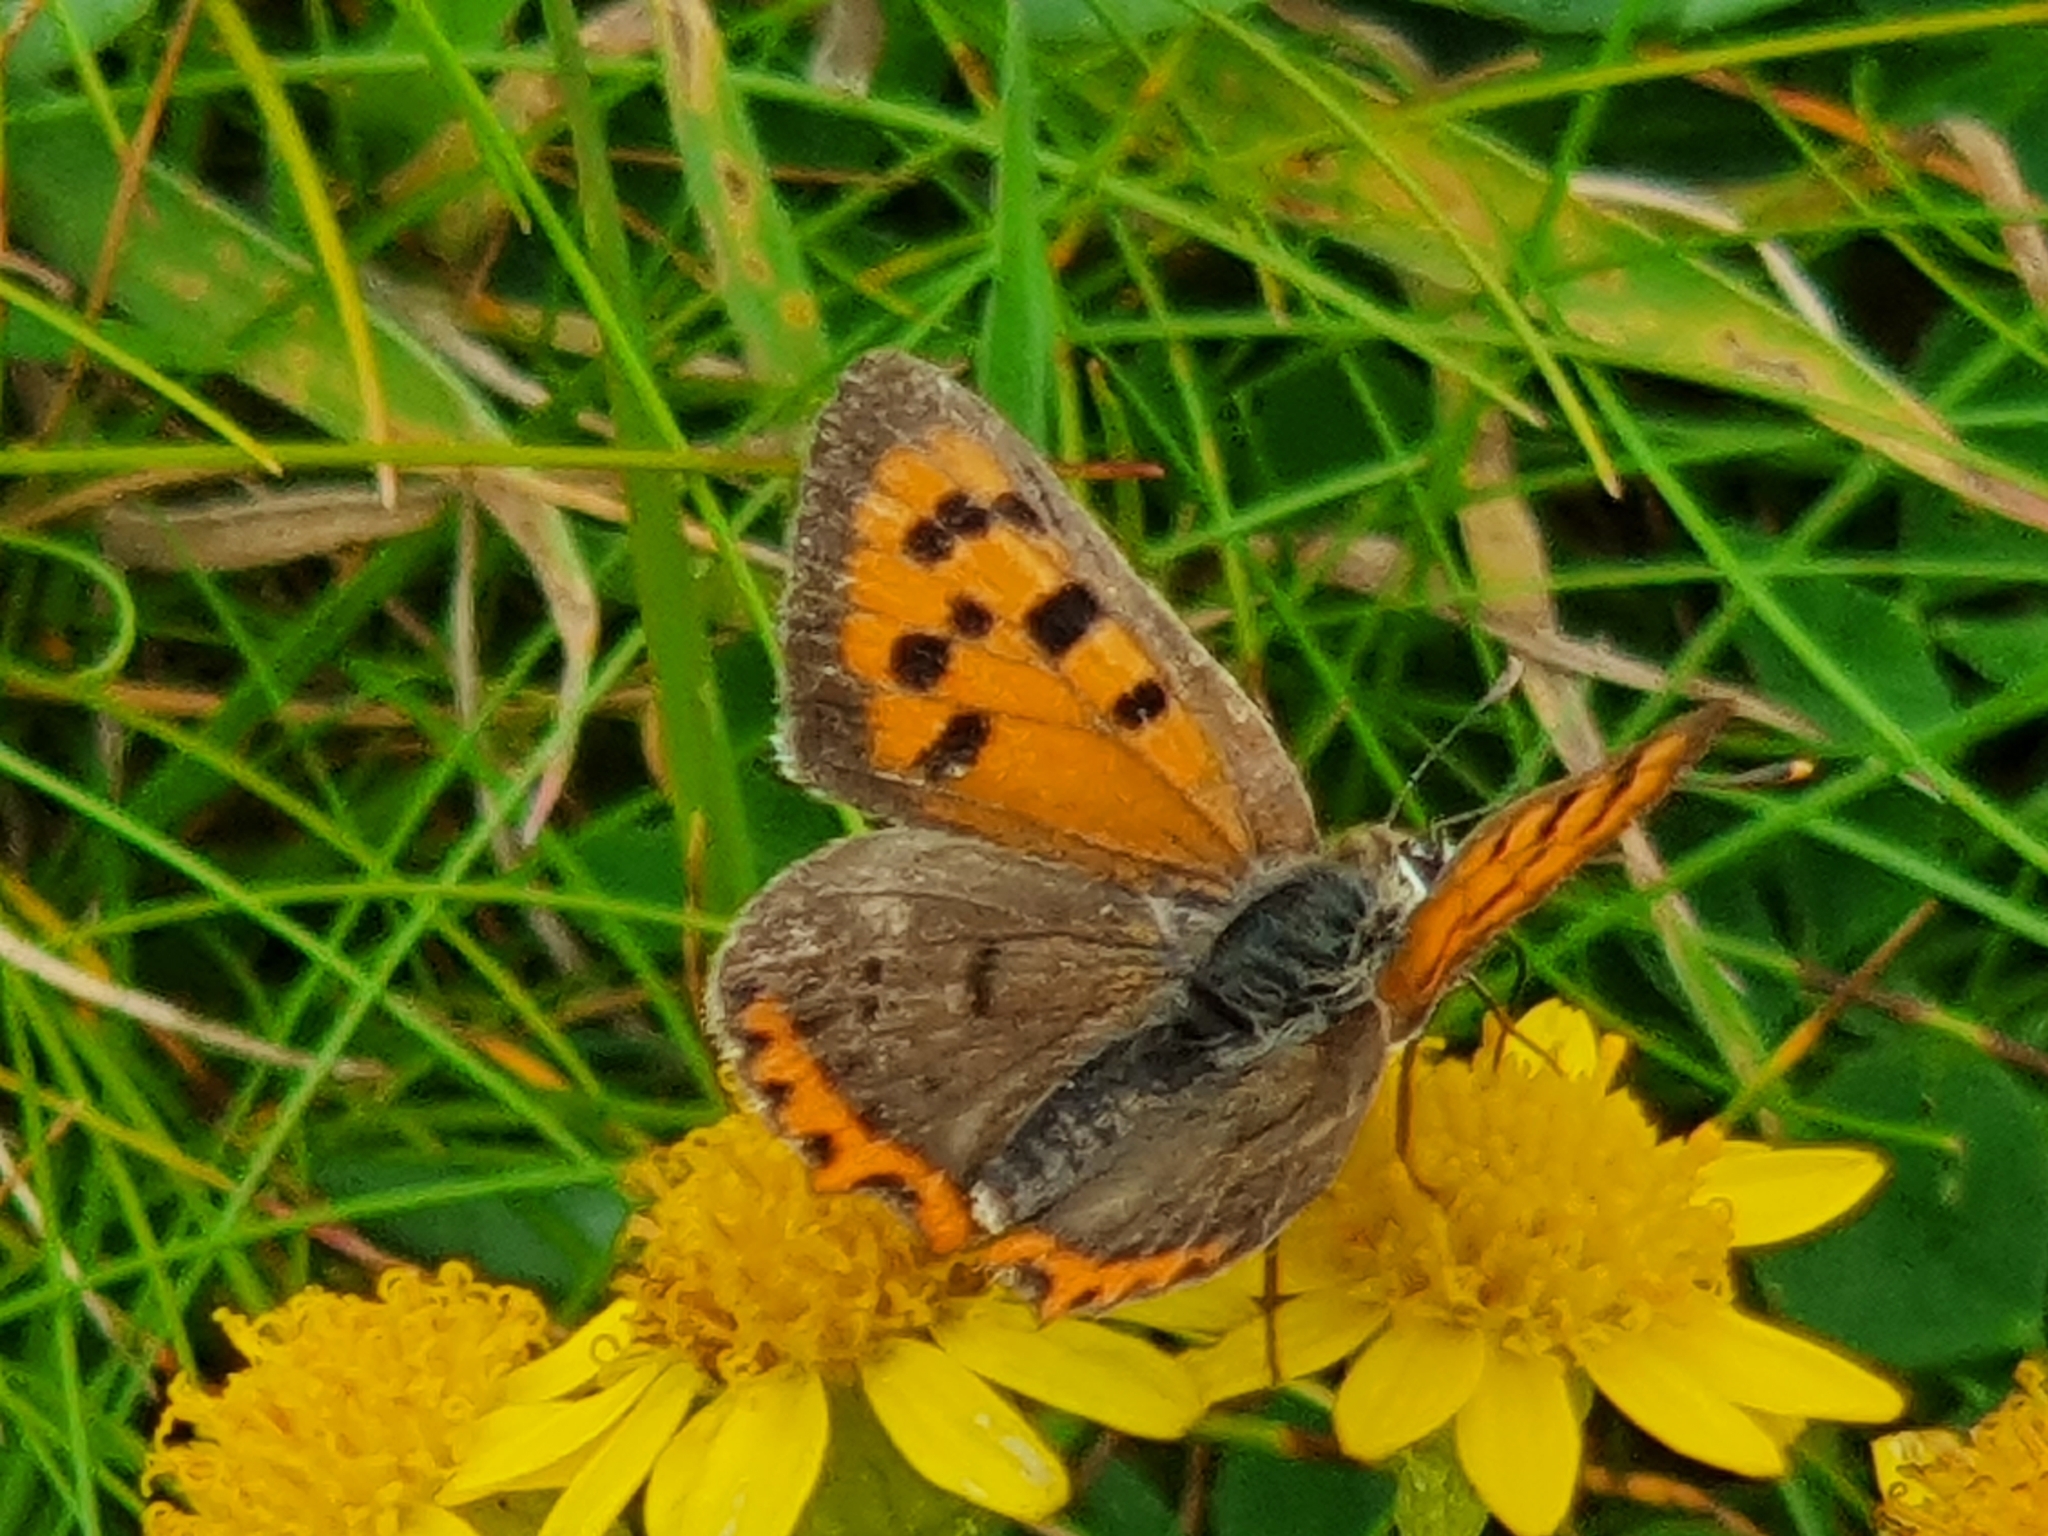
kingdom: Animalia
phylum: Arthropoda
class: Insecta
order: Lepidoptera
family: Lycaenidae
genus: Lycaena
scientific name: Lycaena phlaeas
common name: Small copper
